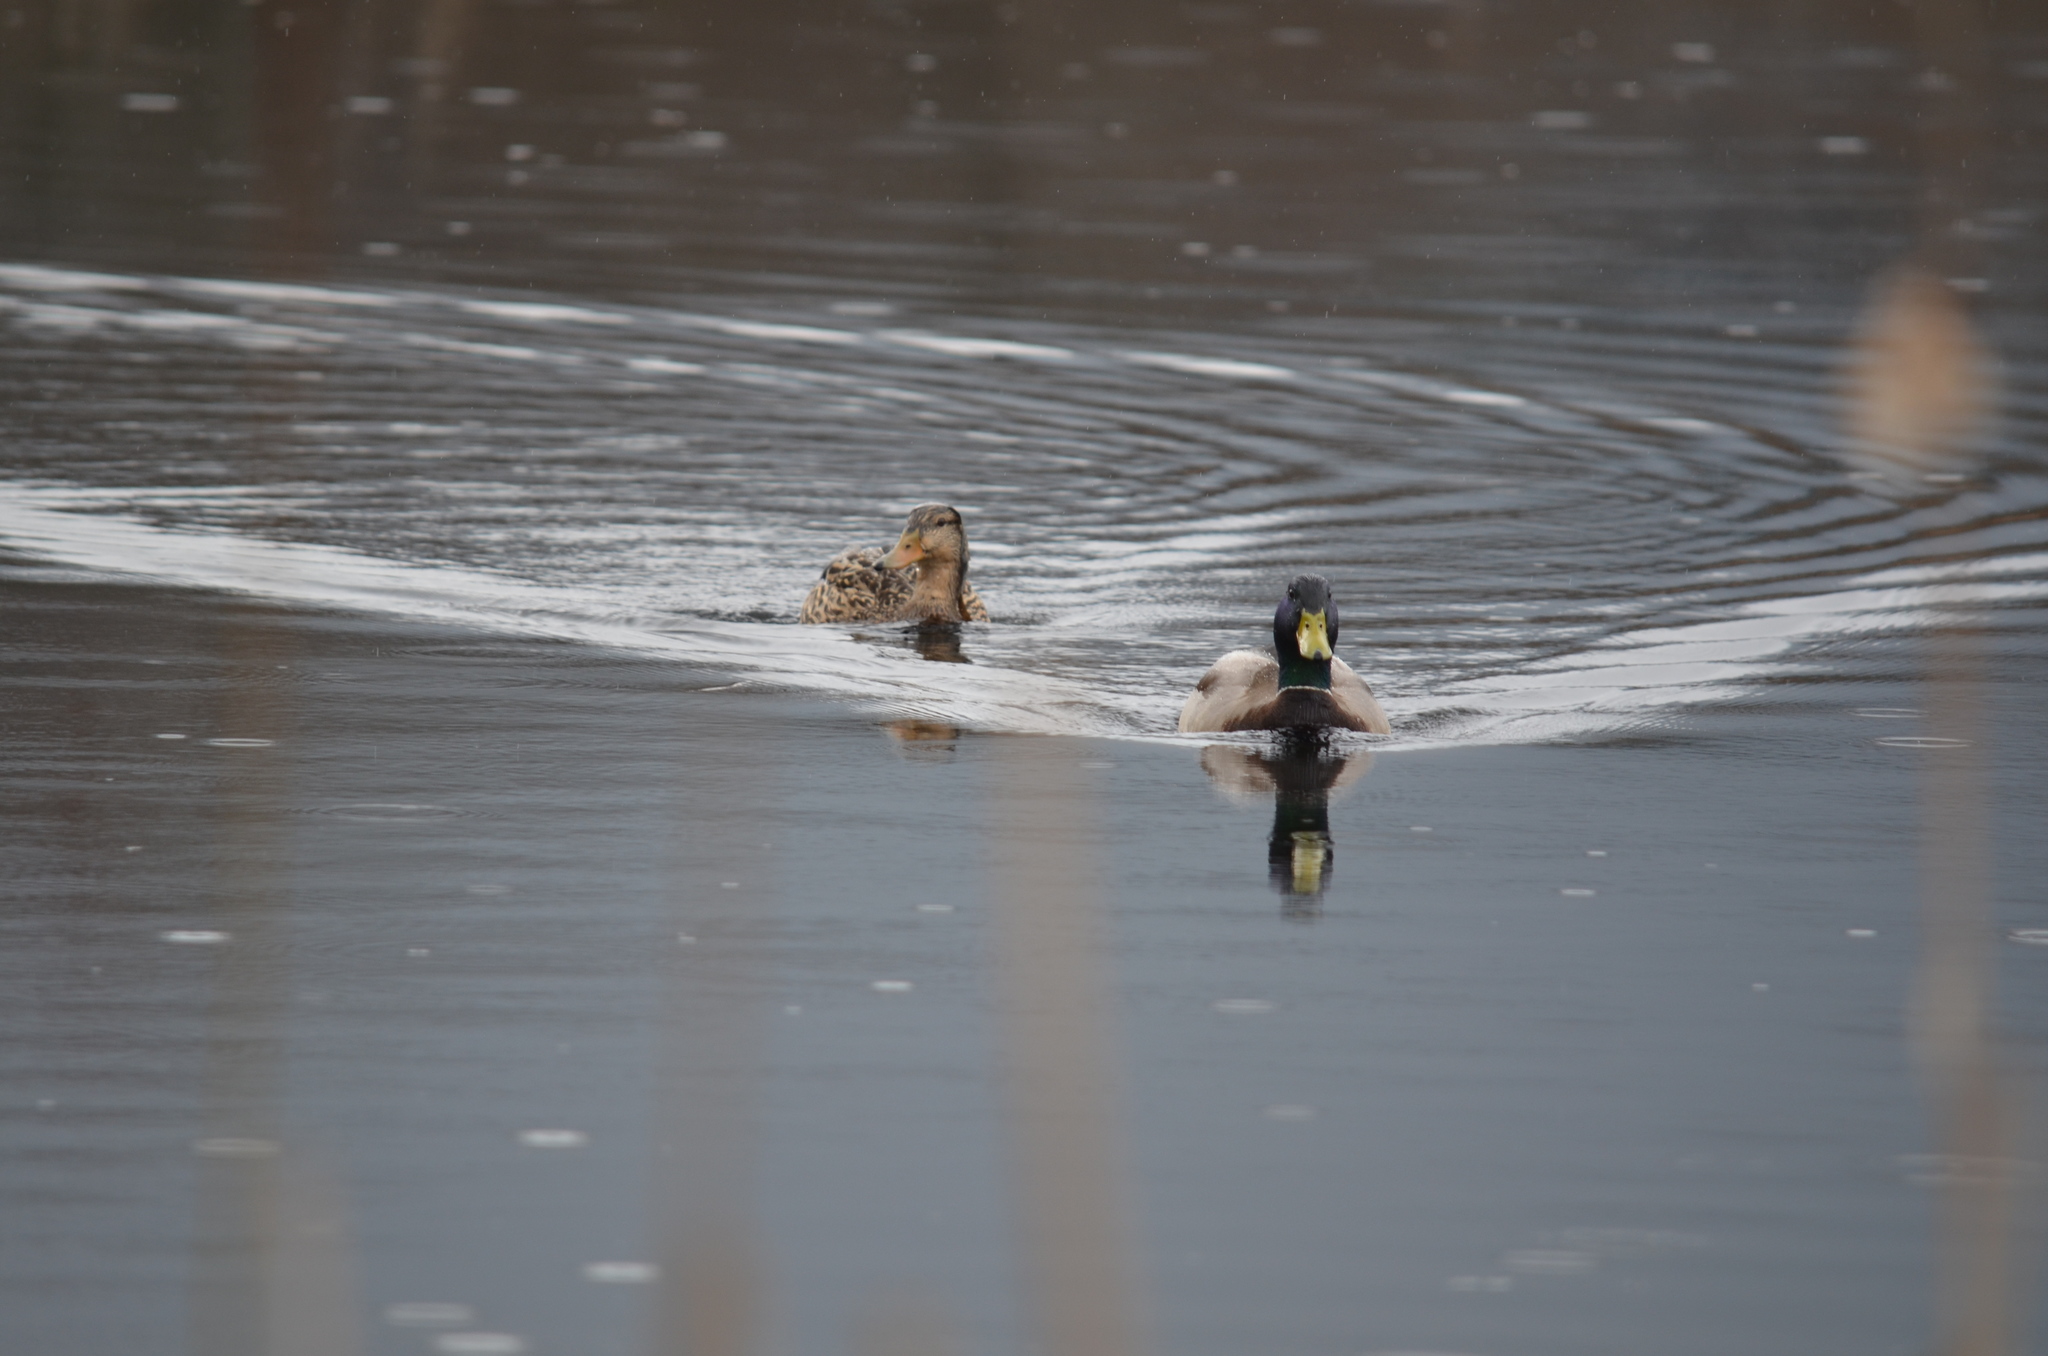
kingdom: Animalia
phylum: Chordata
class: Aves
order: Anseriformes
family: Anatidae
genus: Anas
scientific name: Anas platyrhynchos
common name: Mallard
